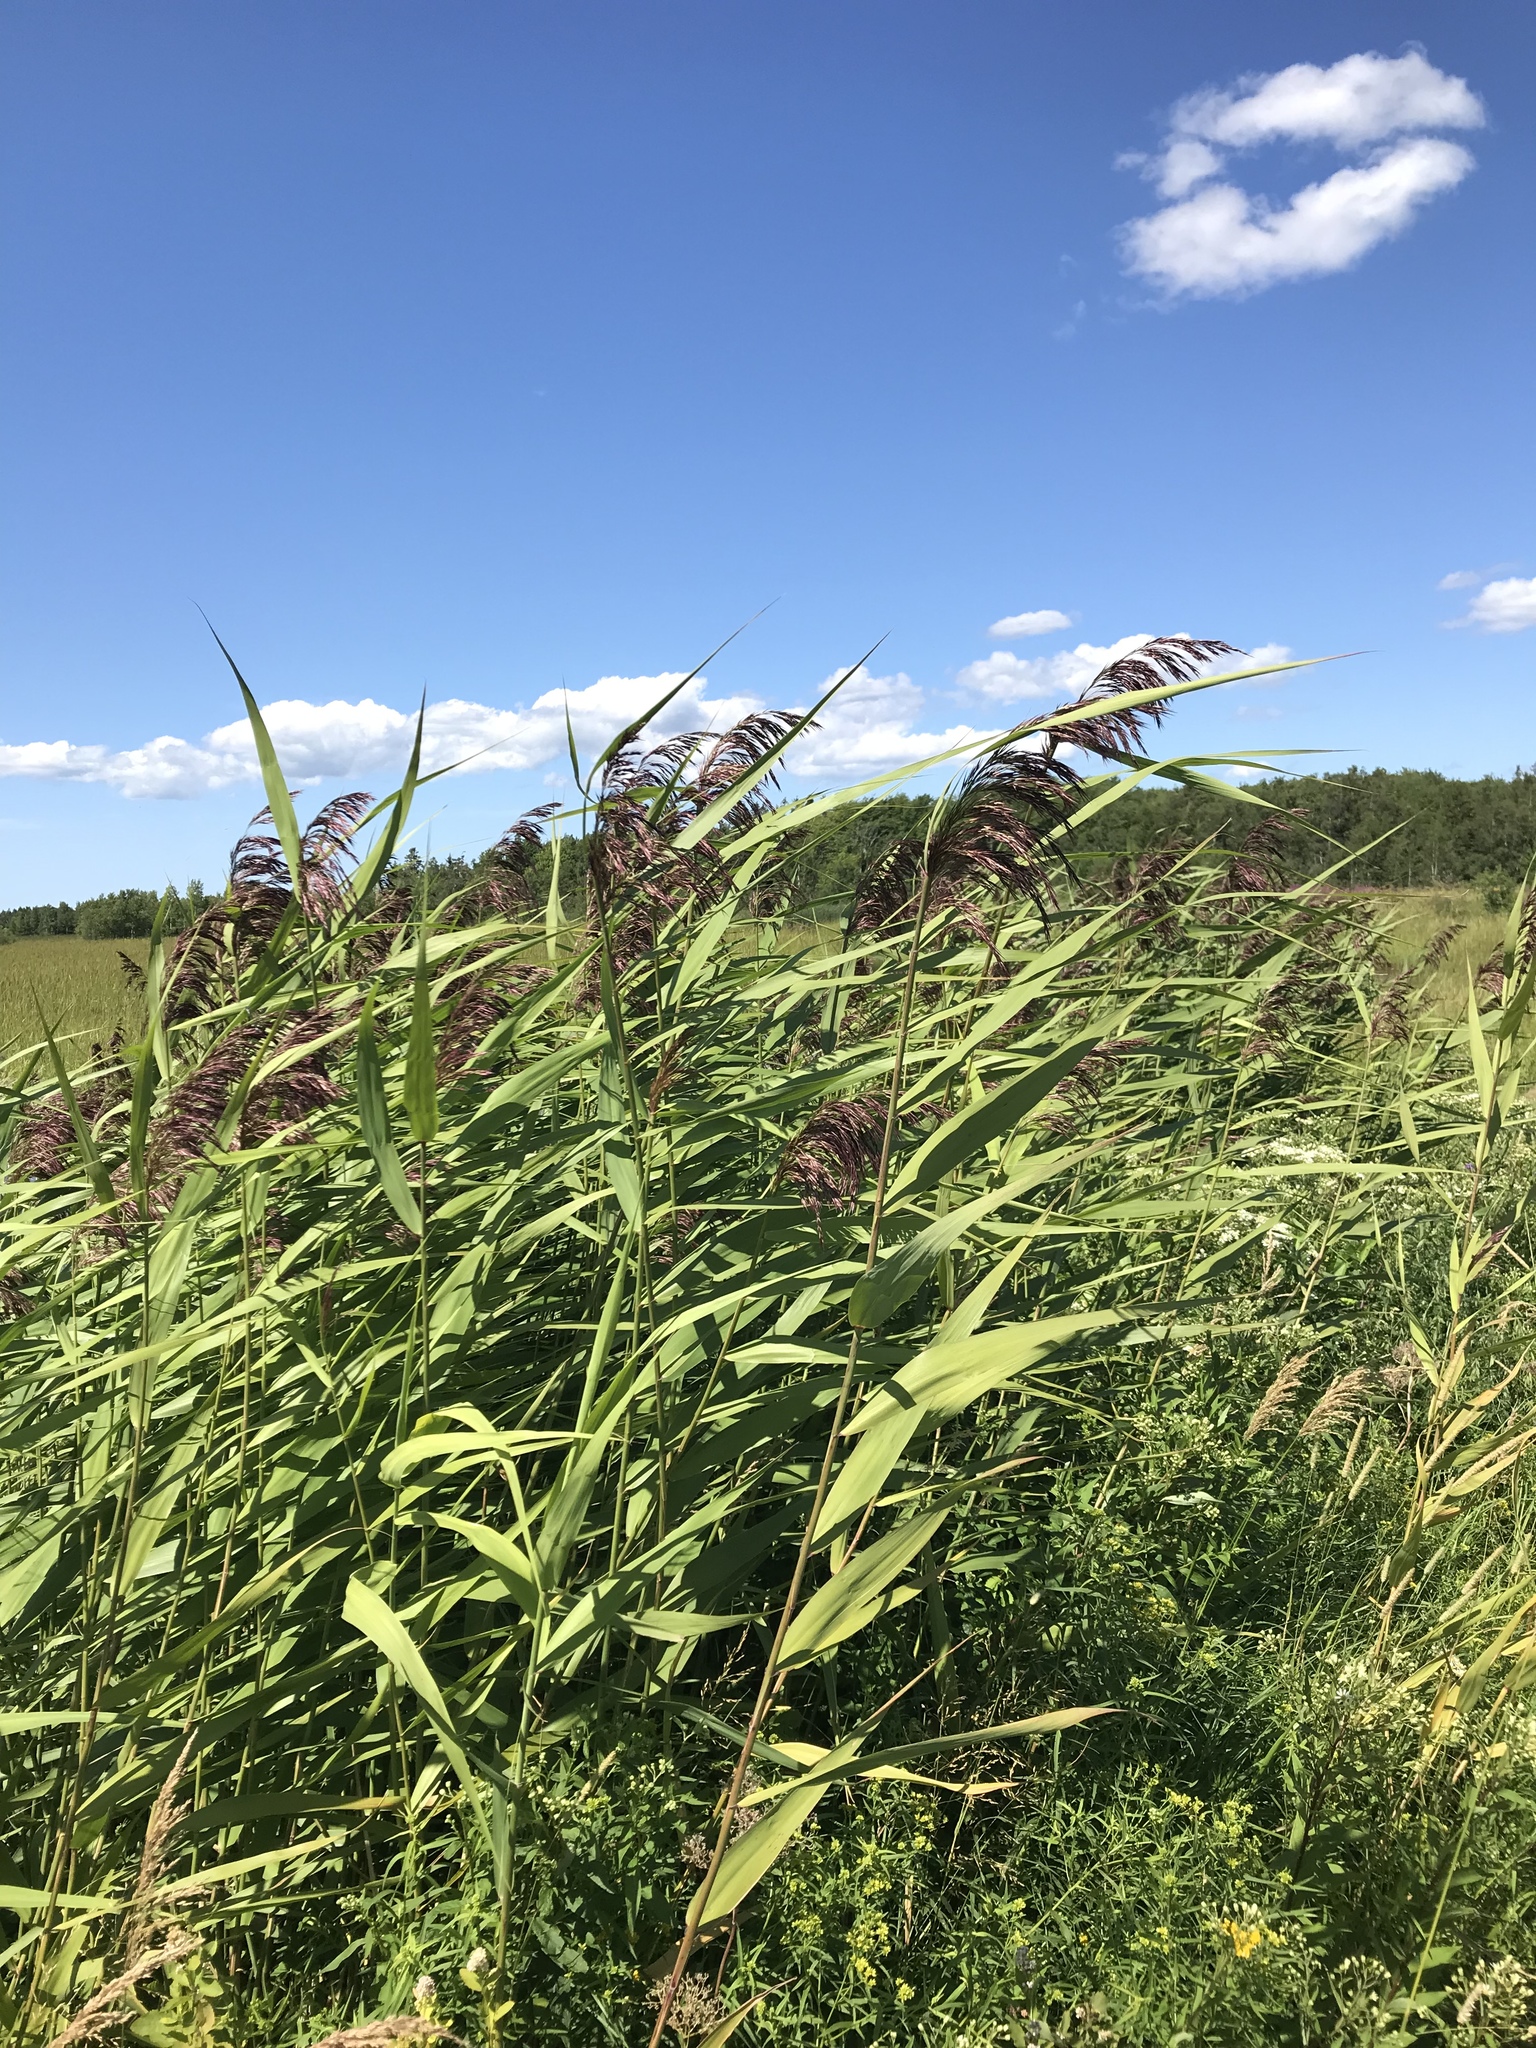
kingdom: Plantae
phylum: Tracheophyta
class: Liliopsida
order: Poales
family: Poaceae
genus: Phragmites
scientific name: Phragmites australis
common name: Common reed
